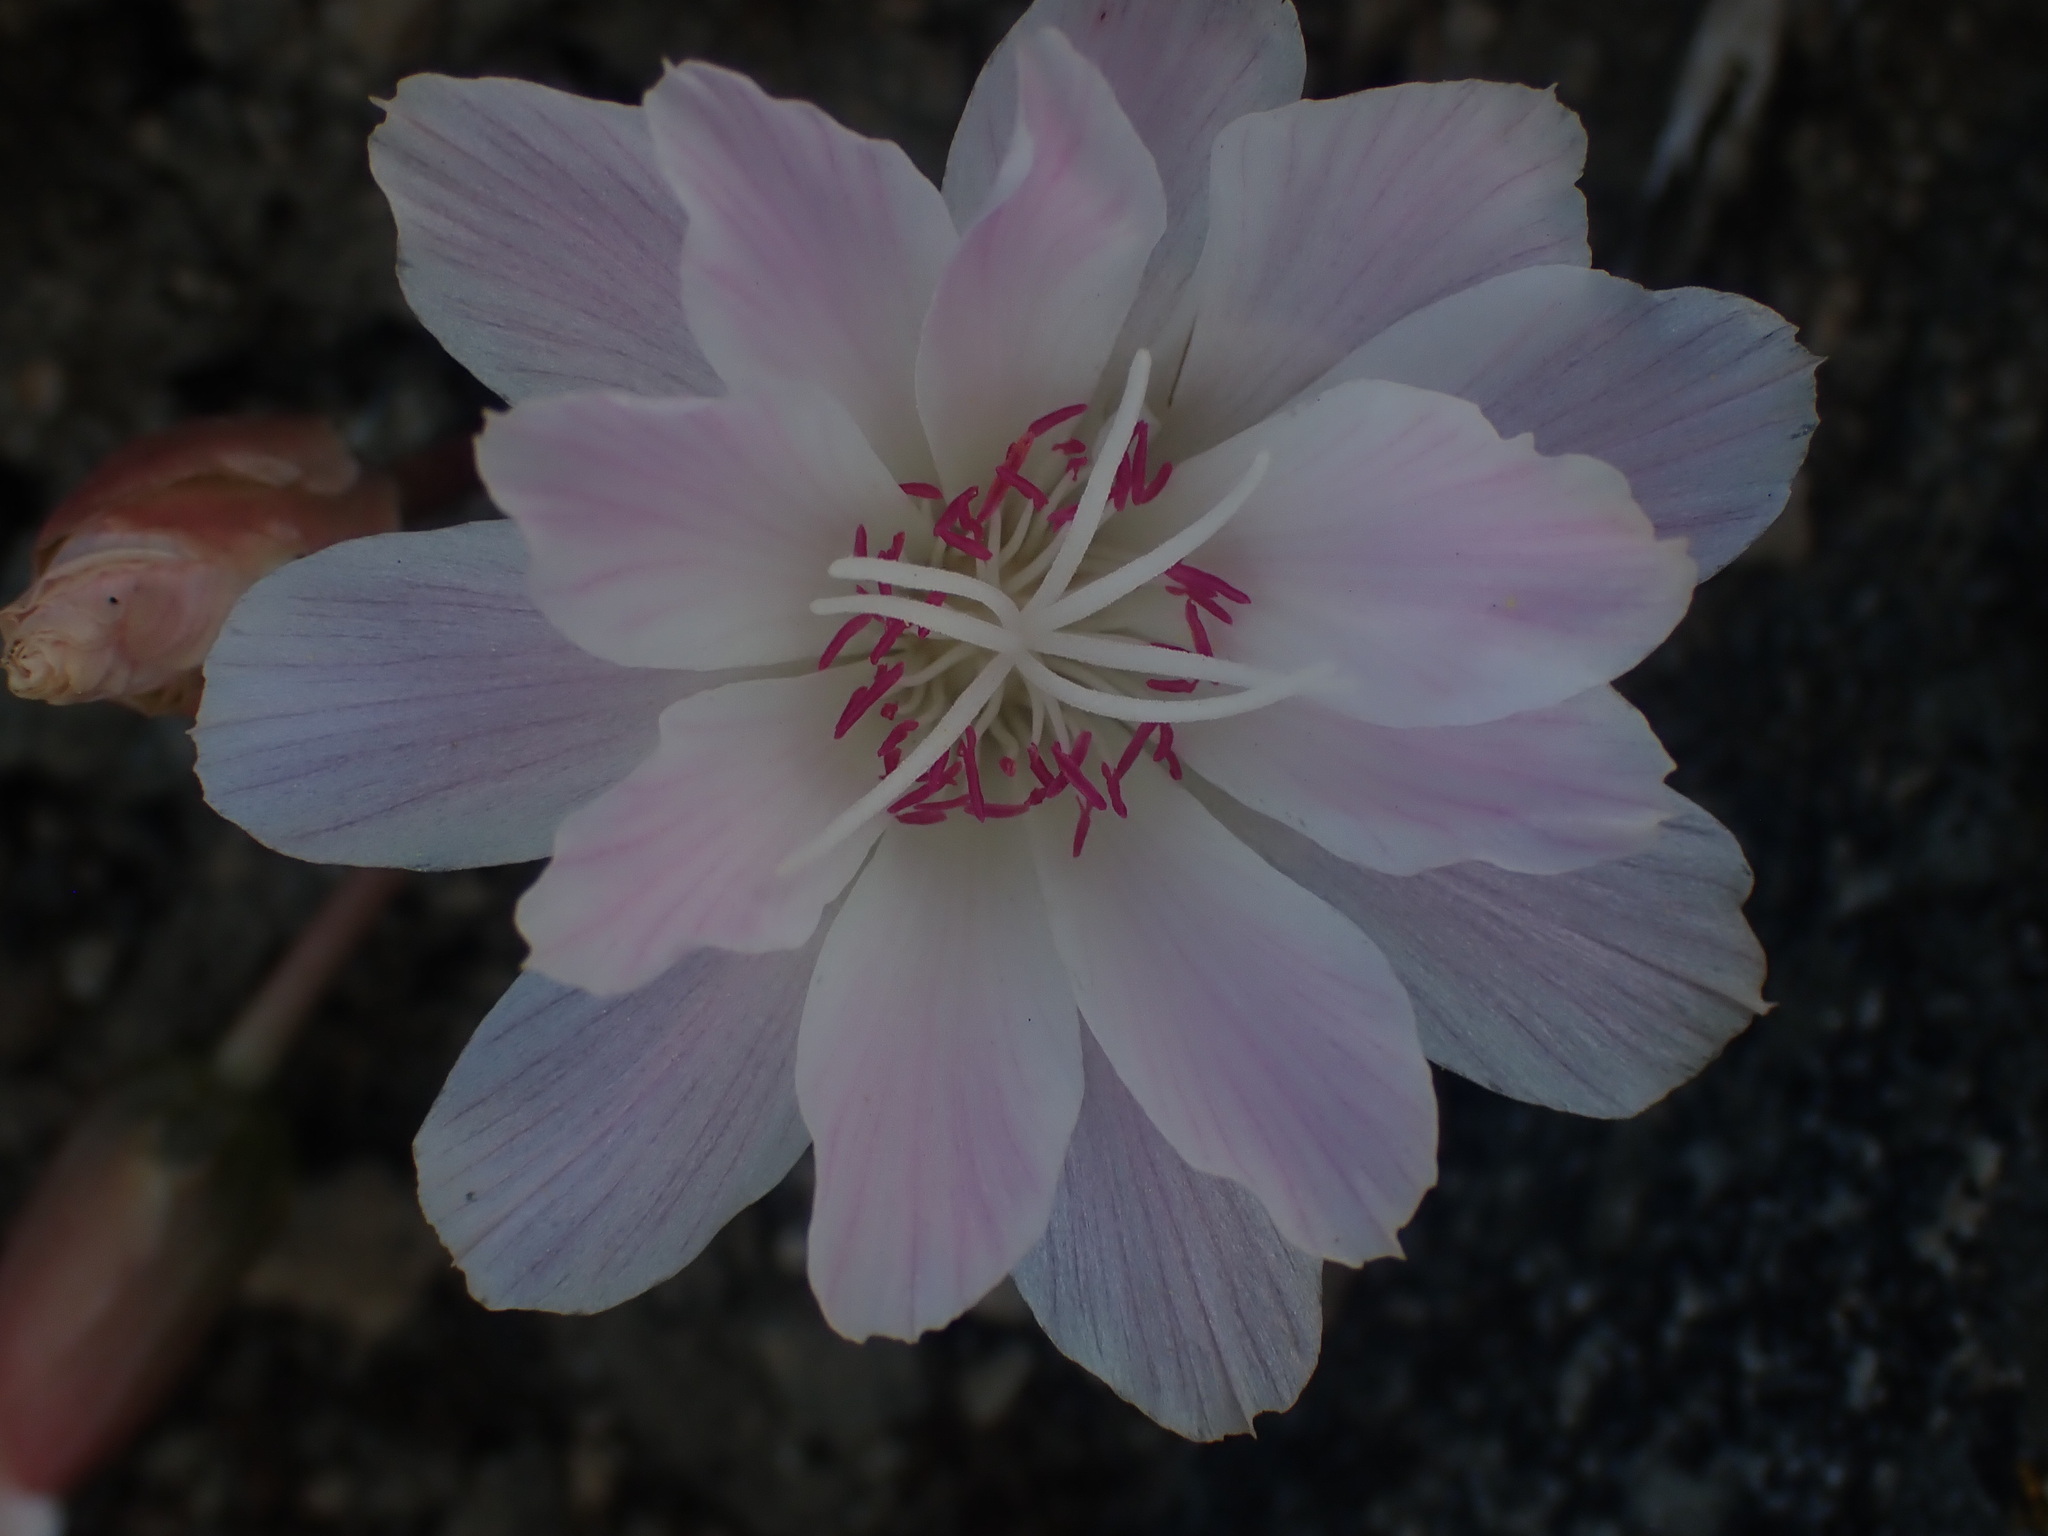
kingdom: Plantae
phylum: Tracheophyta
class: Magnoliopsida
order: Caryophyllales
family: Montiaceae
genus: Lewisia
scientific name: Lewisia rediviva
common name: Bitter-root
